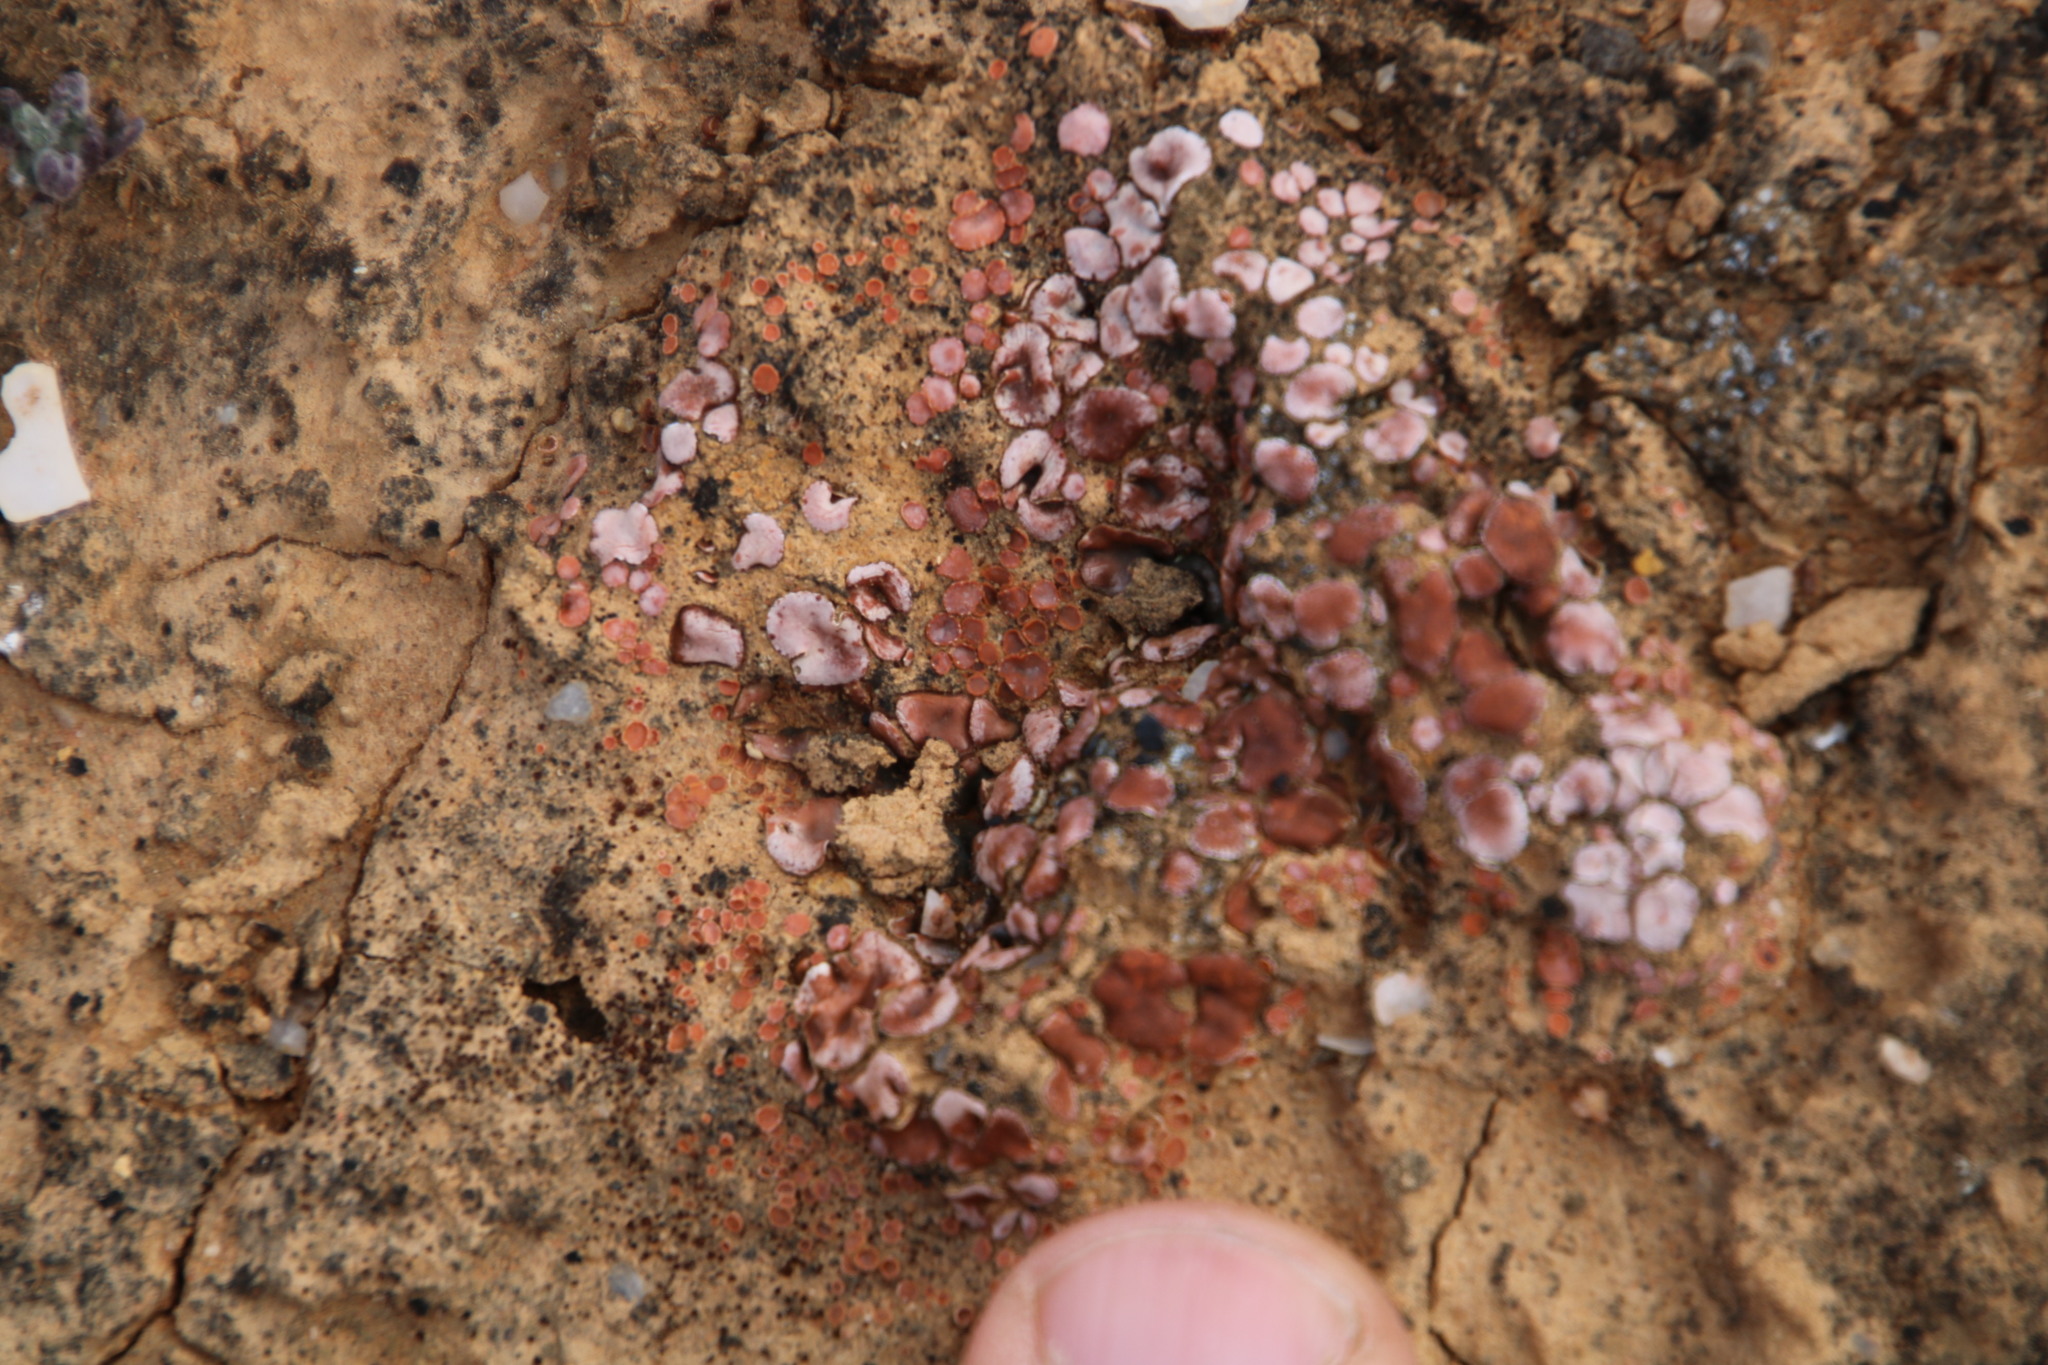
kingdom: Fungi
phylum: Ascomycota
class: Lecanoromycetes
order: Lecanorales
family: Psoraceae
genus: Psora
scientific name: Psora crenata
